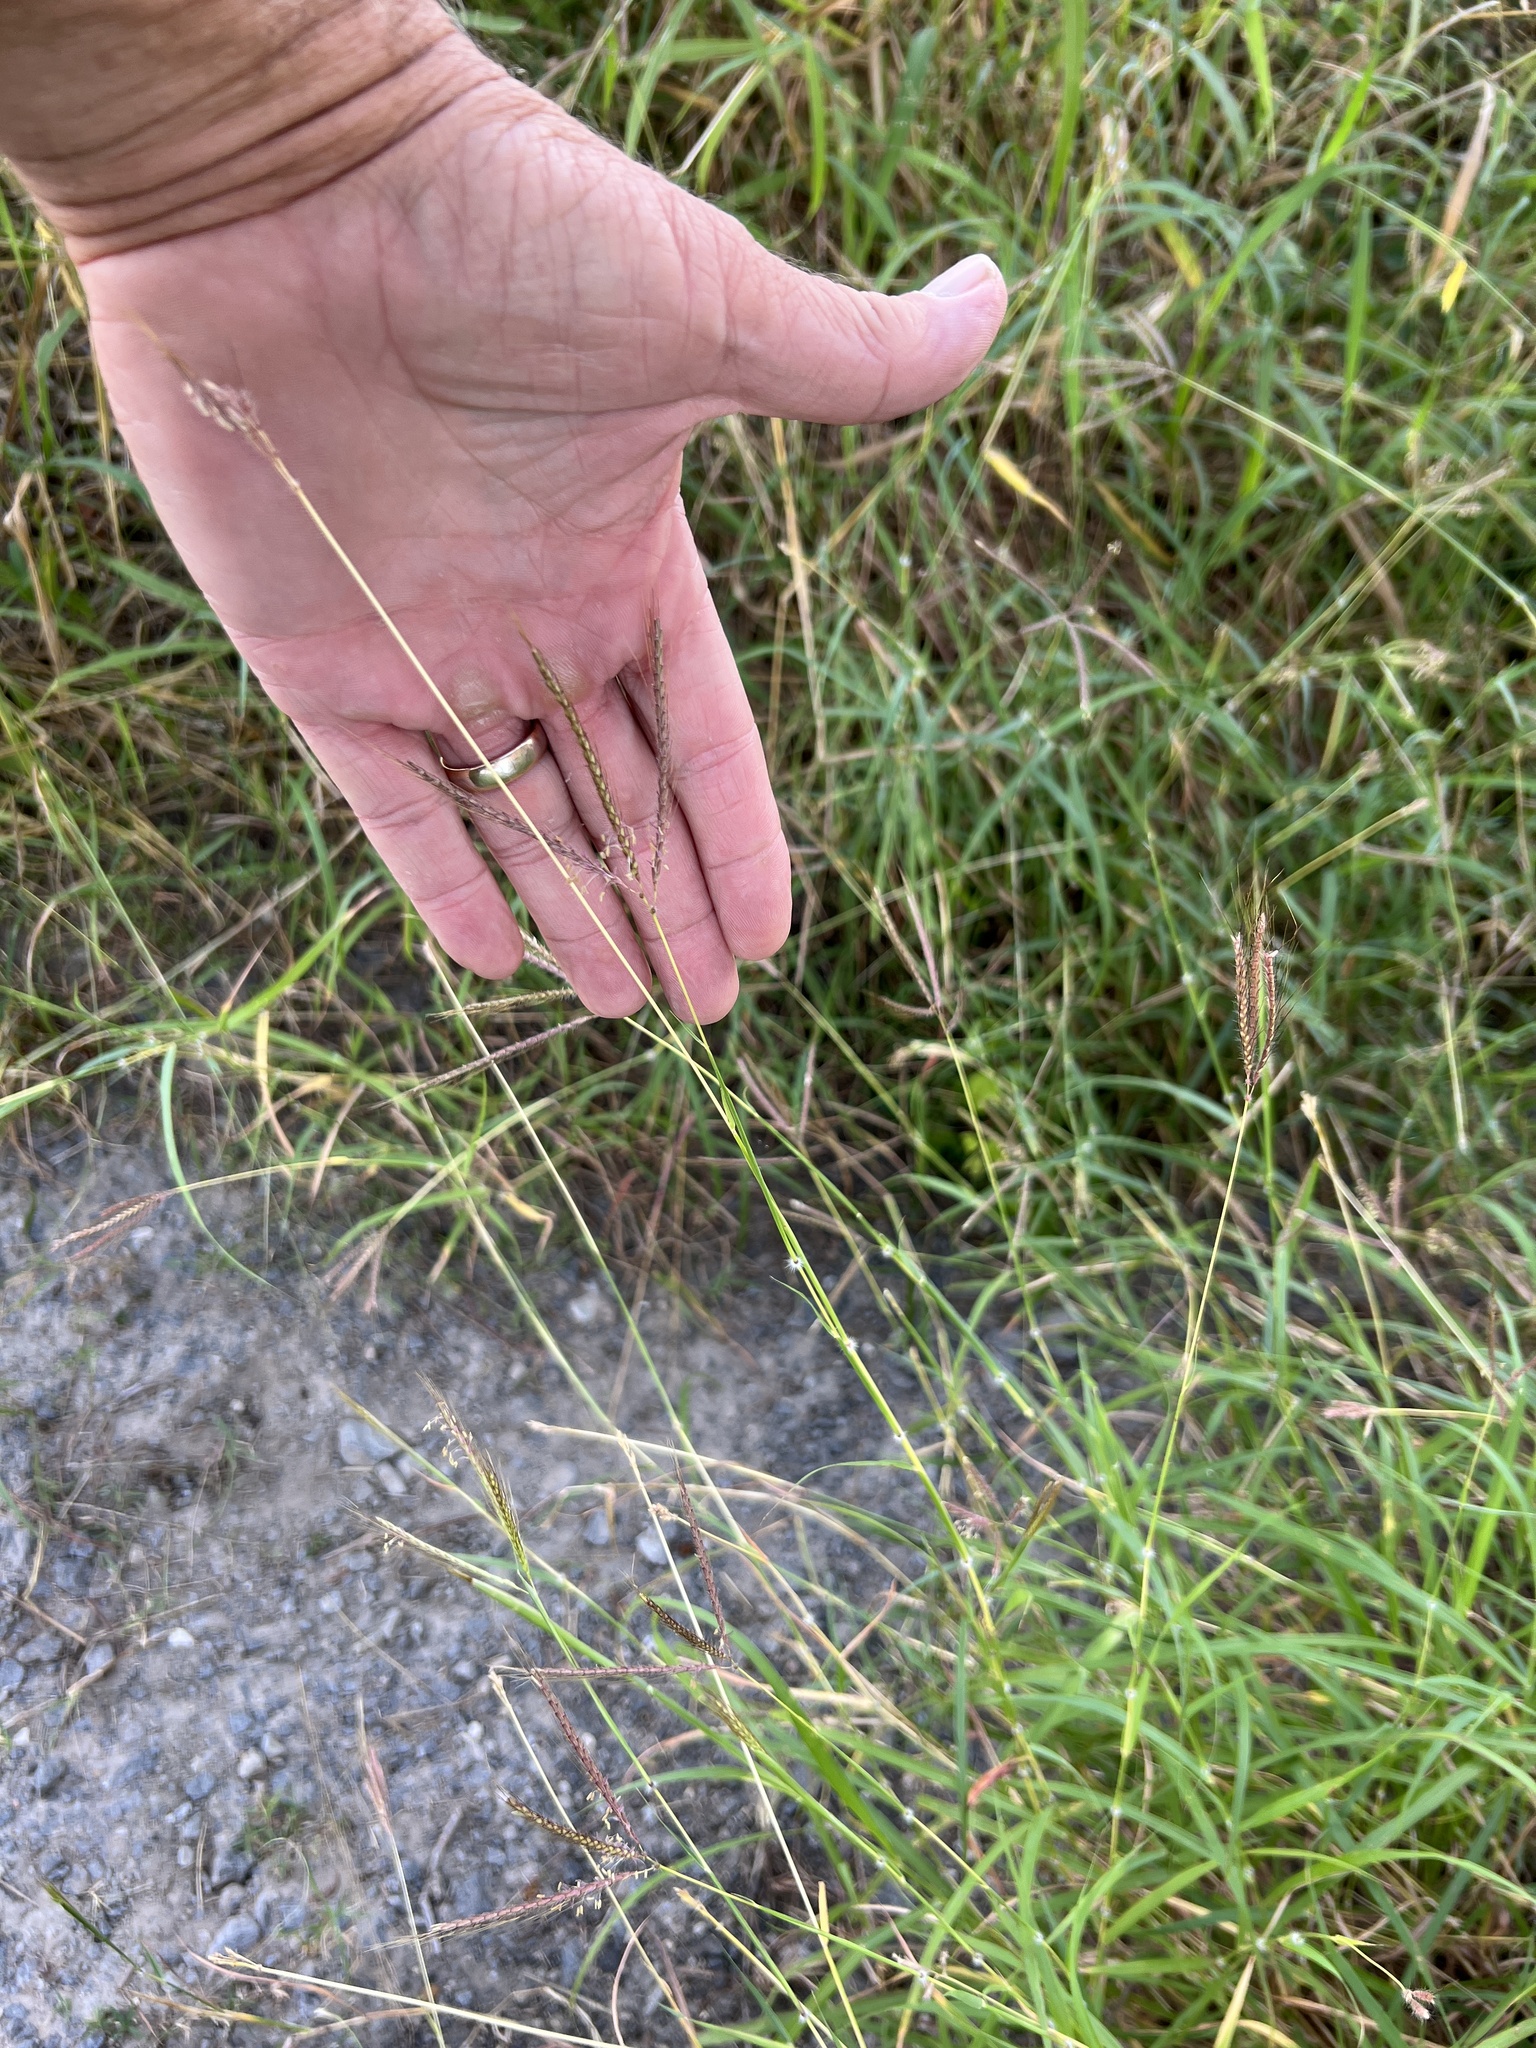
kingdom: Plantae
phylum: Tracheophyta
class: Liliopsida
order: Poales
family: Poaceae
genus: Dichanthium
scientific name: Dichanthium annulatum
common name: Kleberg's bluestem
